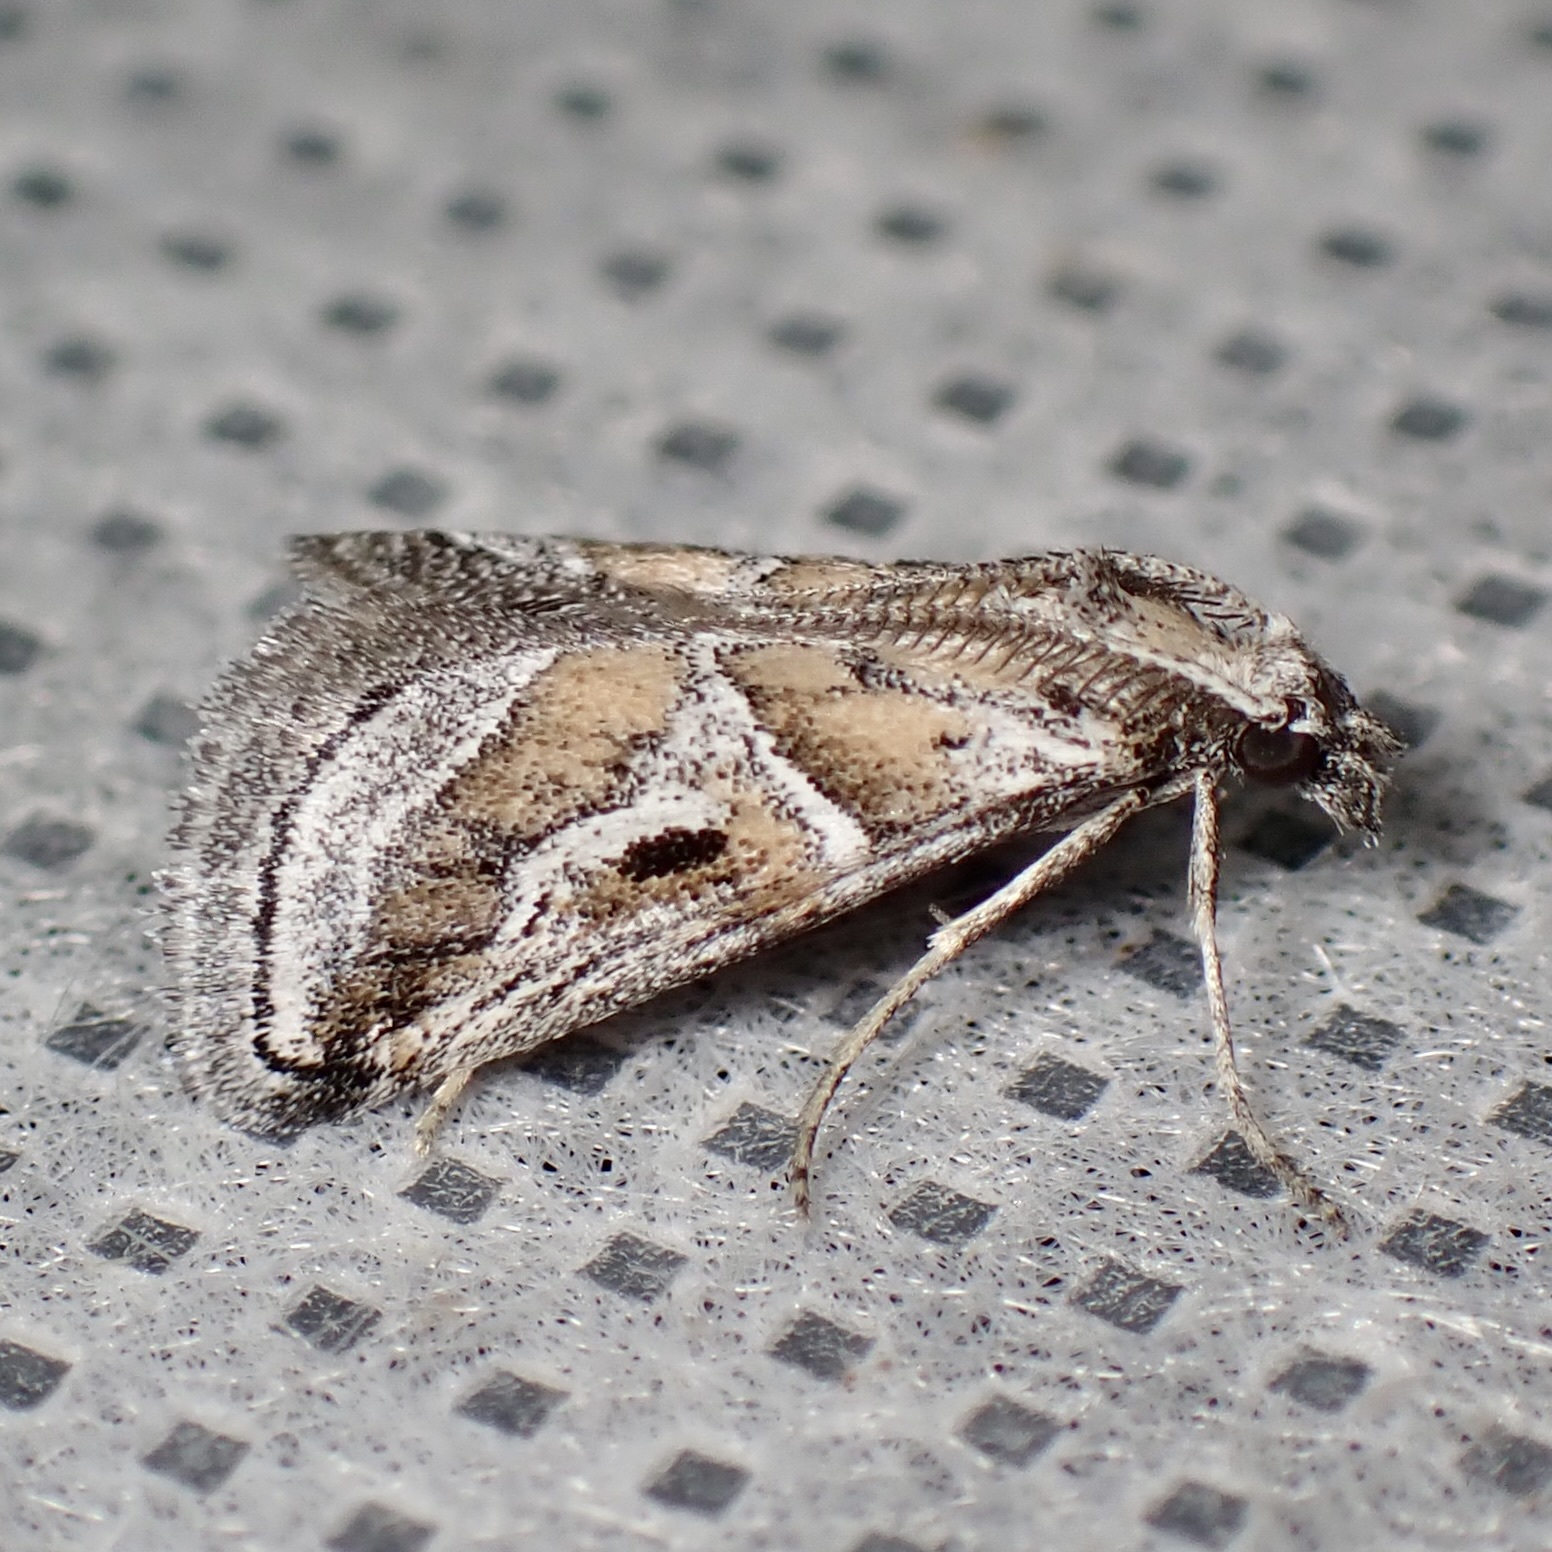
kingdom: Animalia
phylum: Arthropoda
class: Insecta
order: Lepidoptera
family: Pyralidae
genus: Alpheias
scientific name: Alpheias Decaturia pectinalis
